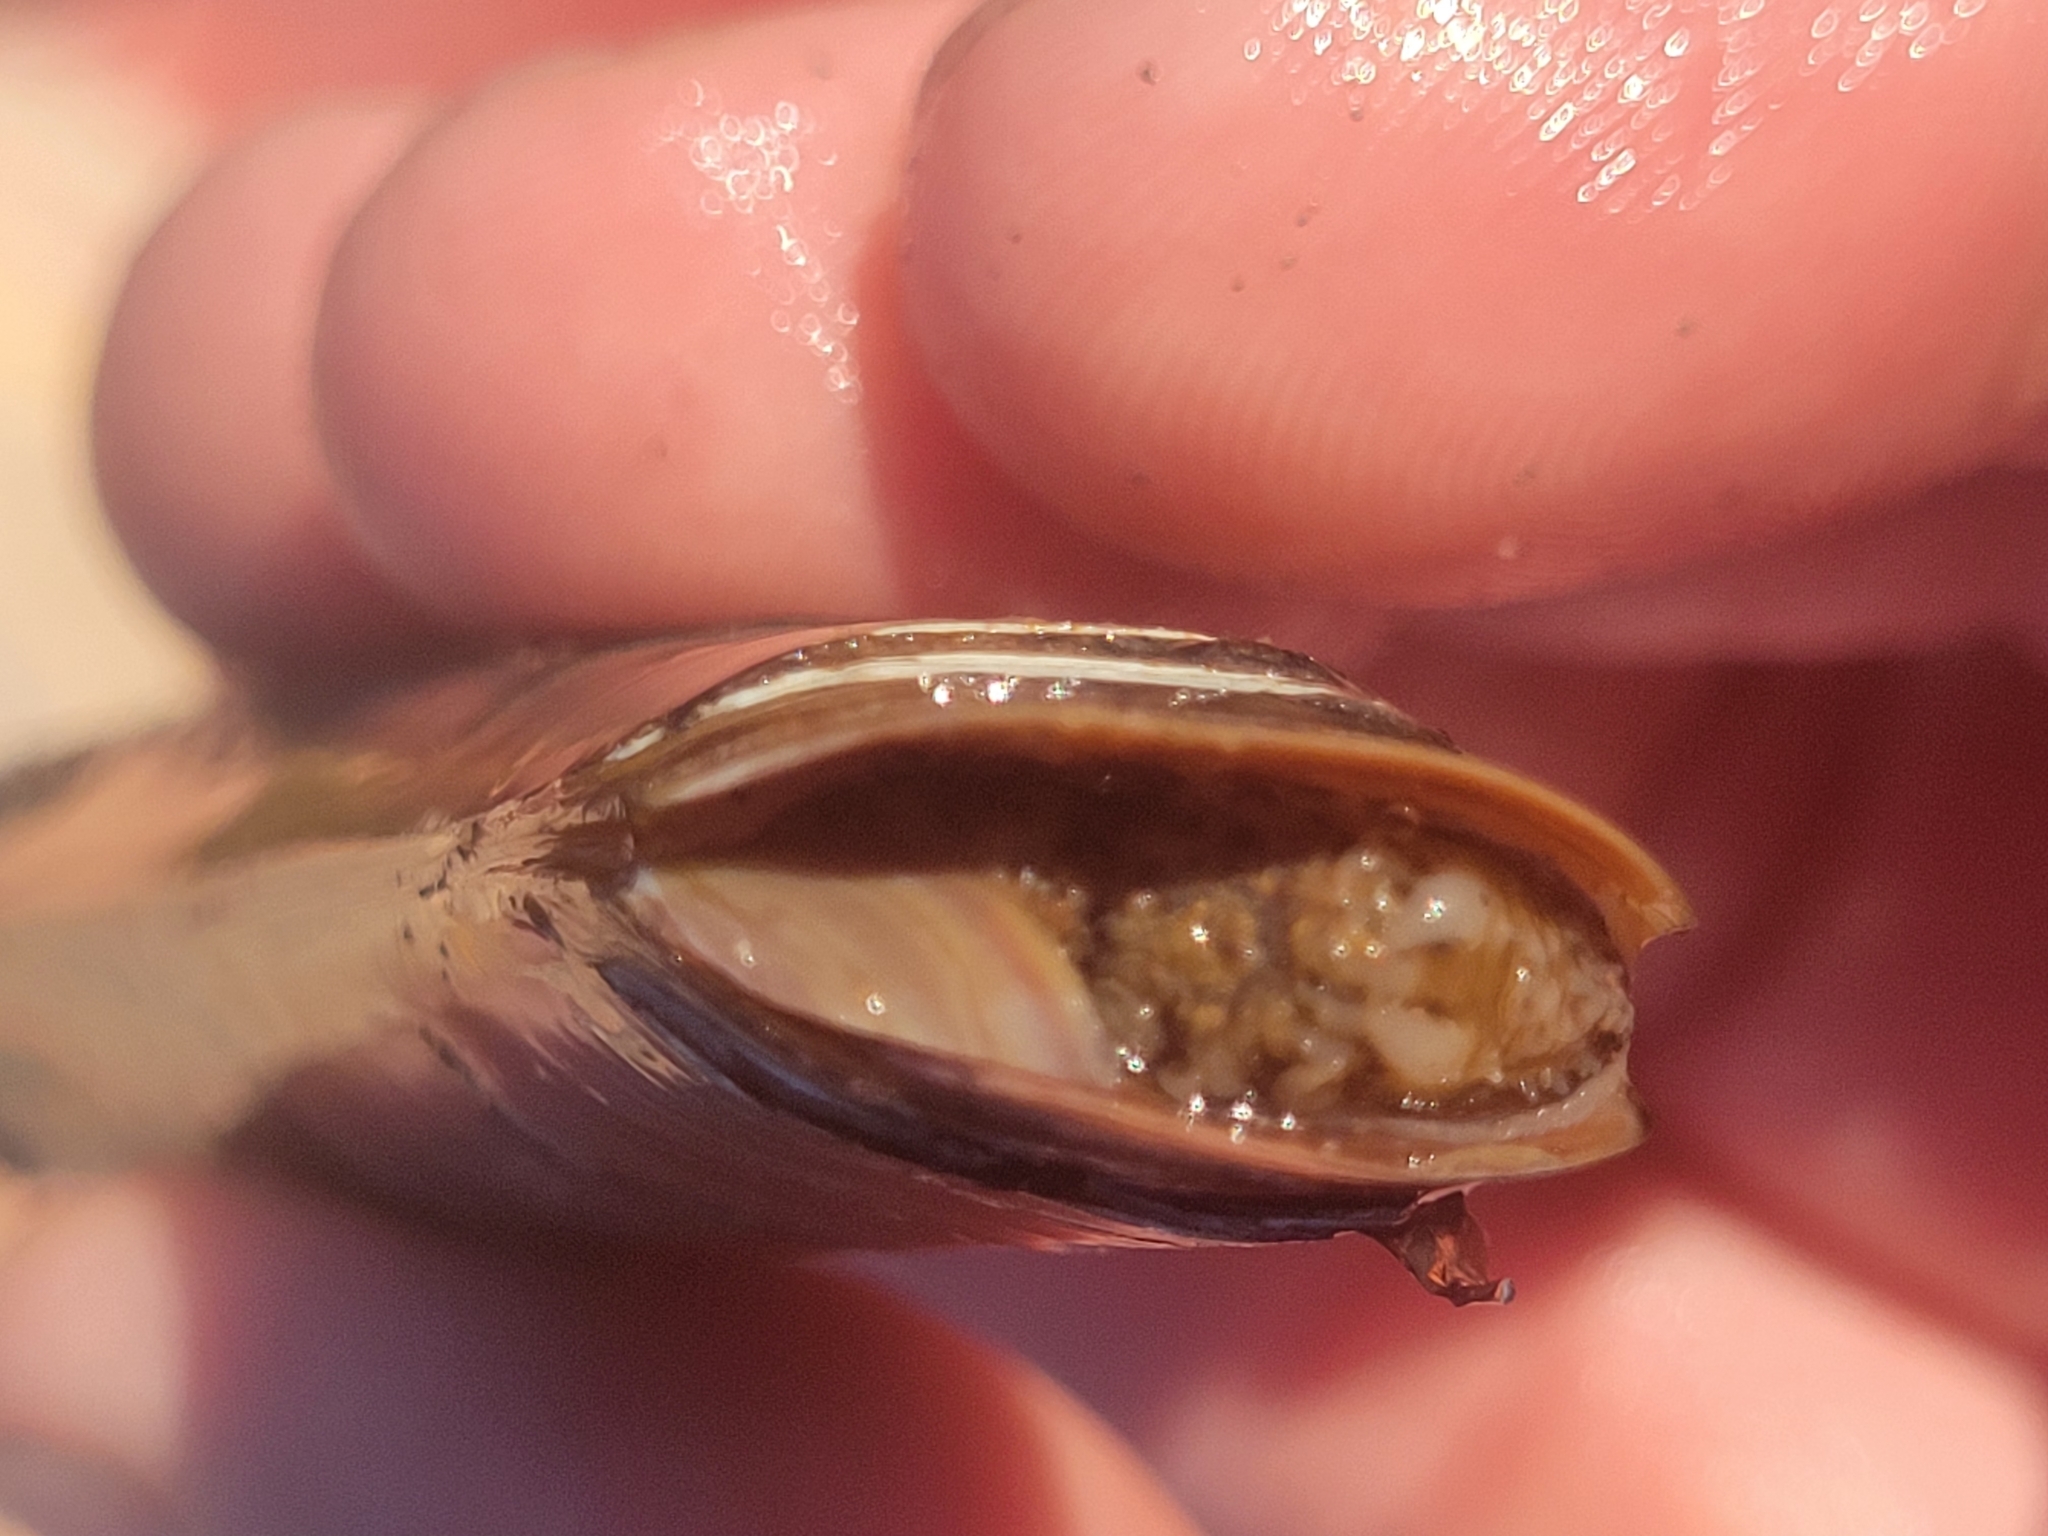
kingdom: Animalia
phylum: Mollusca
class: Bivalvia
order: Adapedonta
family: Pharidae
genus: Ensis
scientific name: Ensis leei
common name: American jack knife clam
